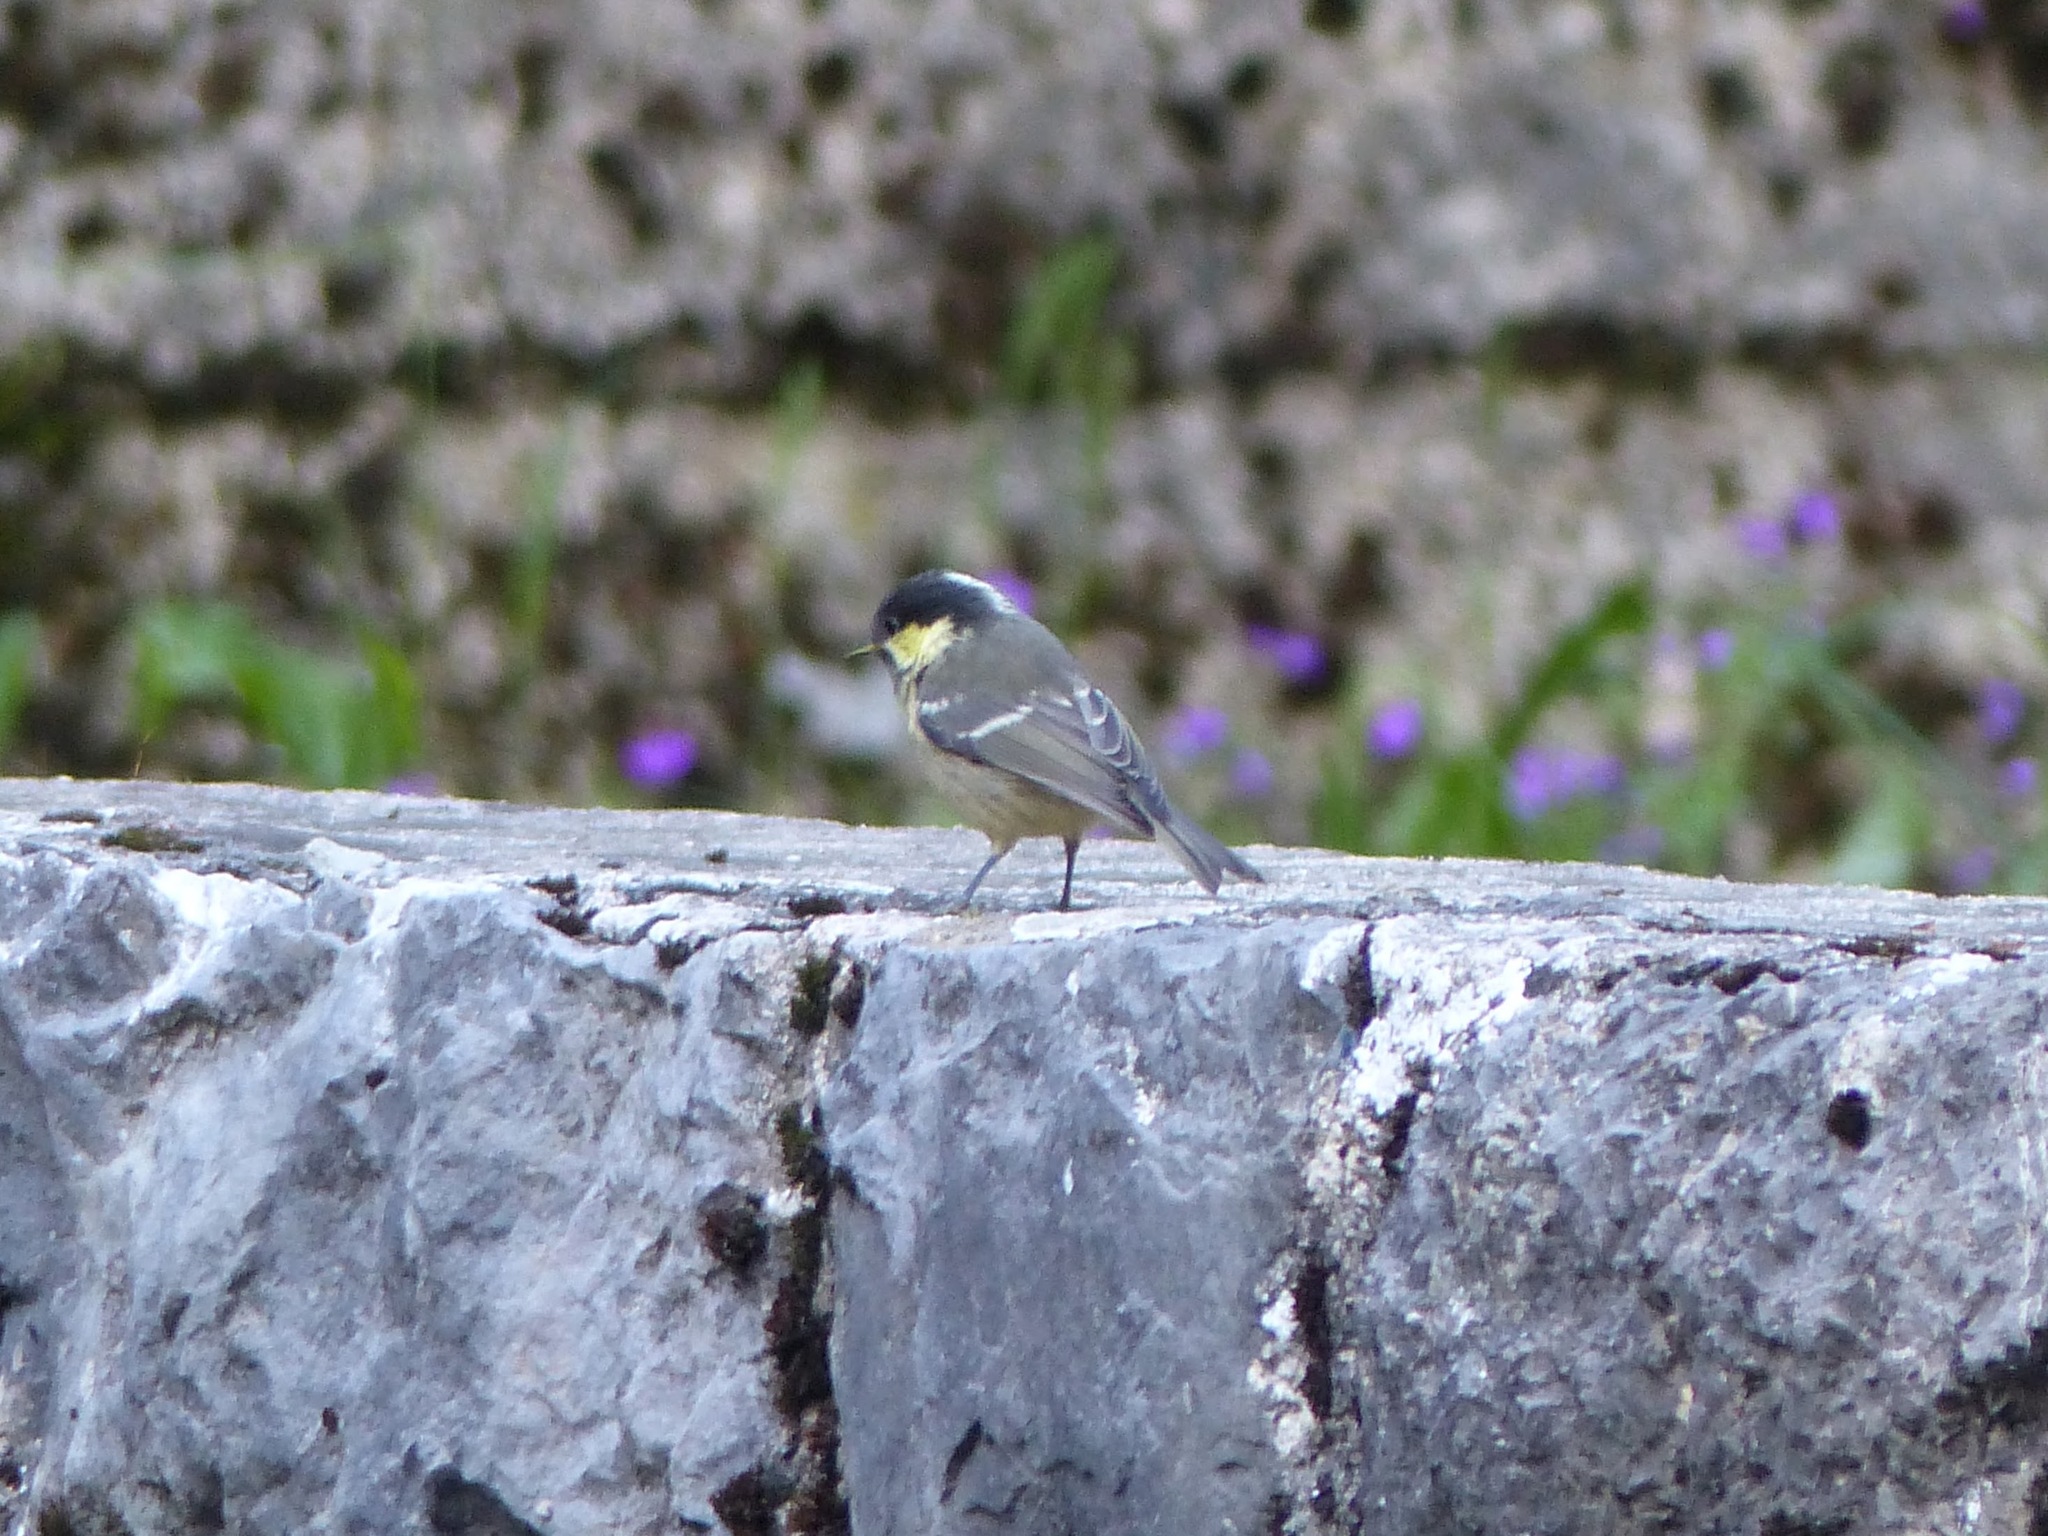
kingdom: Animalia
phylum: Chordata
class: Aves
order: Passeriformes
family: Paridae
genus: Periparus
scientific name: Periparus ater
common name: Coal tit
